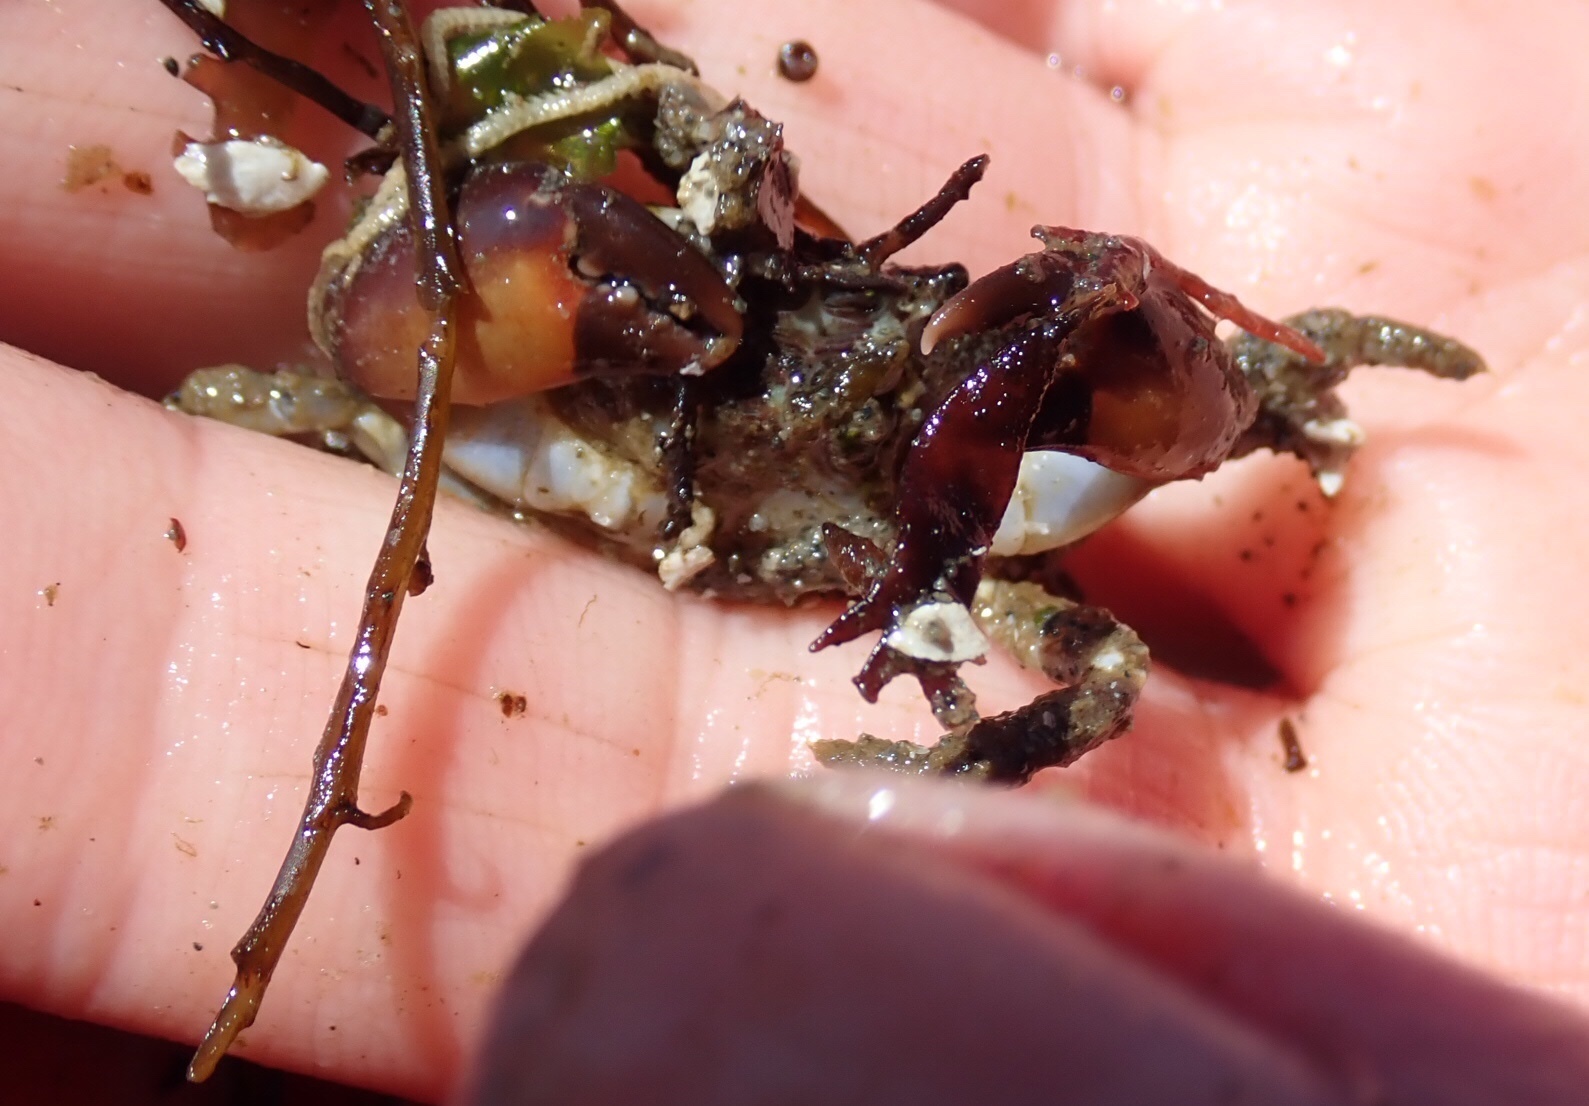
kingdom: Animalia
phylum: Arthropoda
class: Malacostraca
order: Decapoda
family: Panopeidae
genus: Lophopanopeus
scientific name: Lophopanopeus bellus
